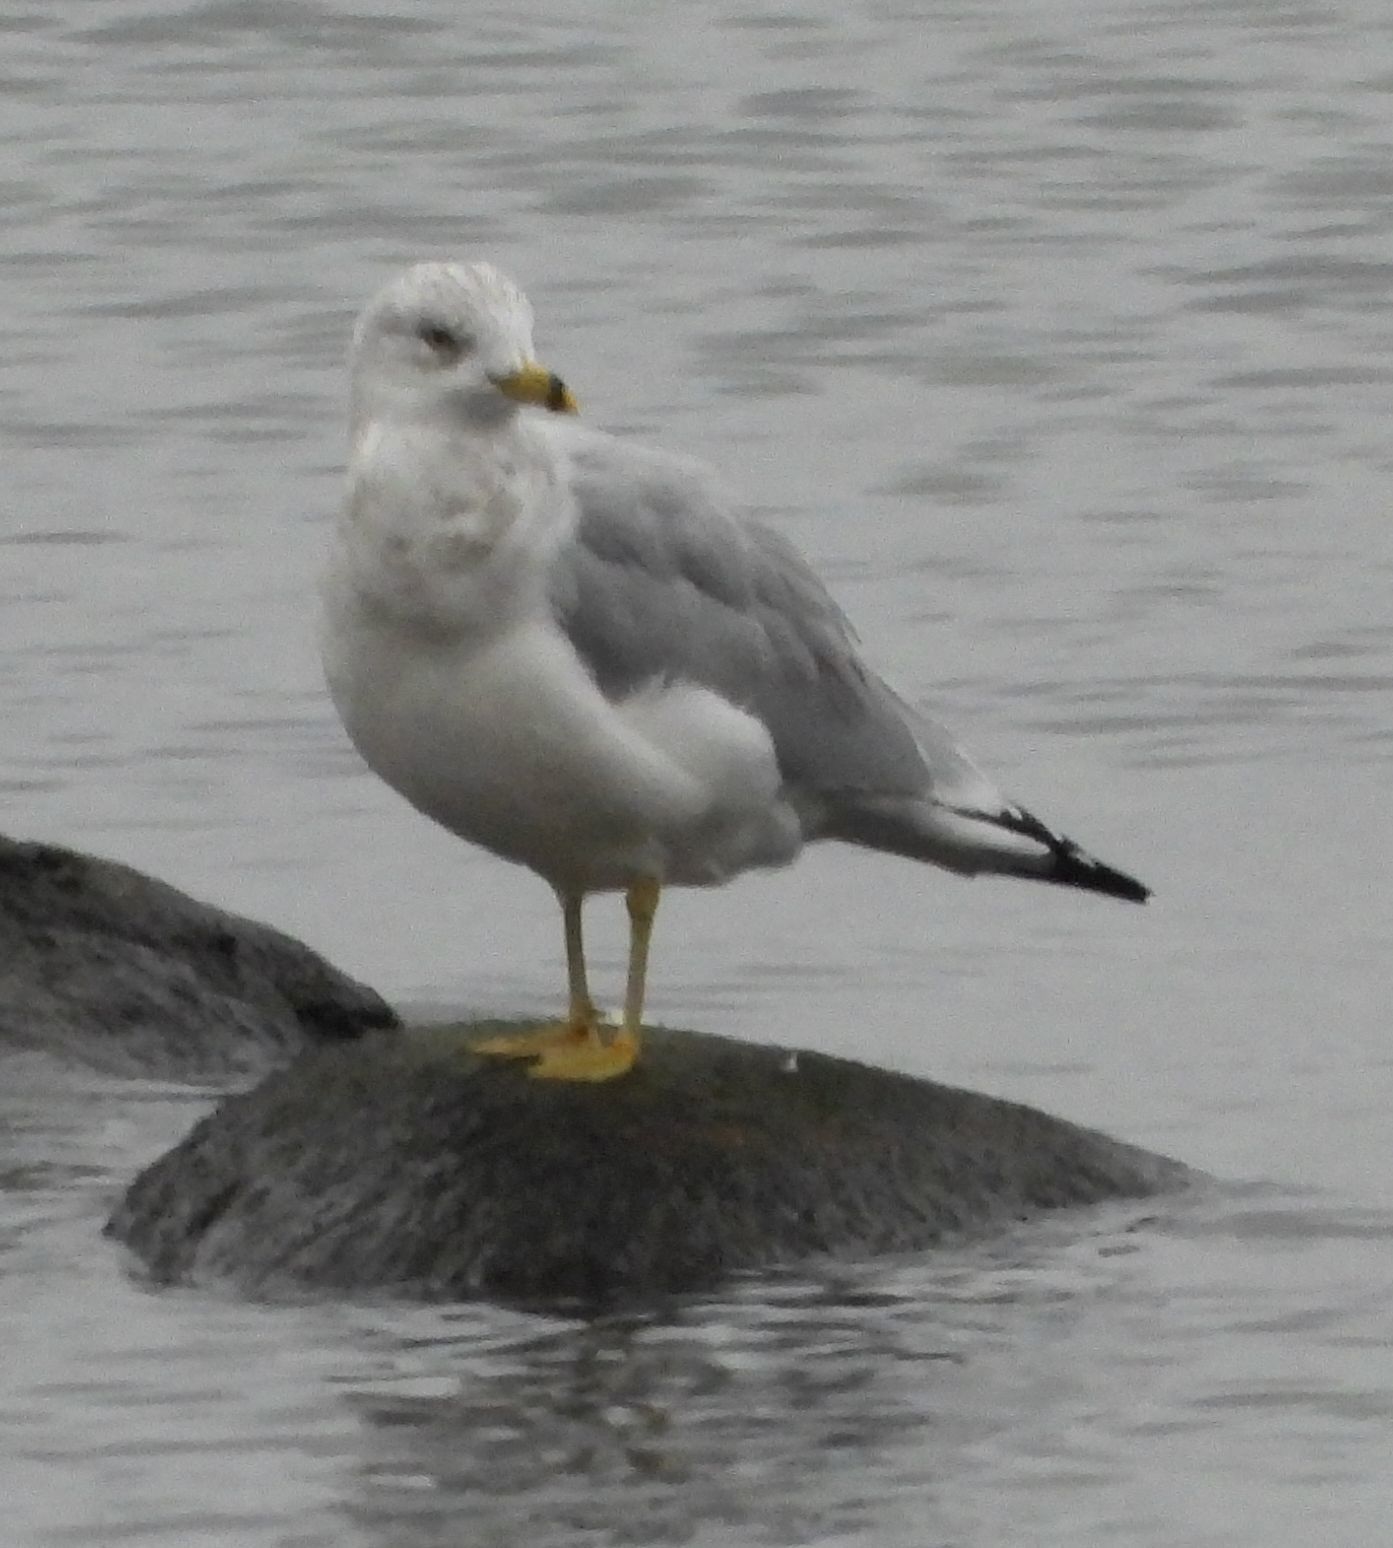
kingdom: Animalia
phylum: Chordata
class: Aves
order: Charadriiformes
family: Laridae
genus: Larus
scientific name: Larus delawarensis
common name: Ring-billed gull
